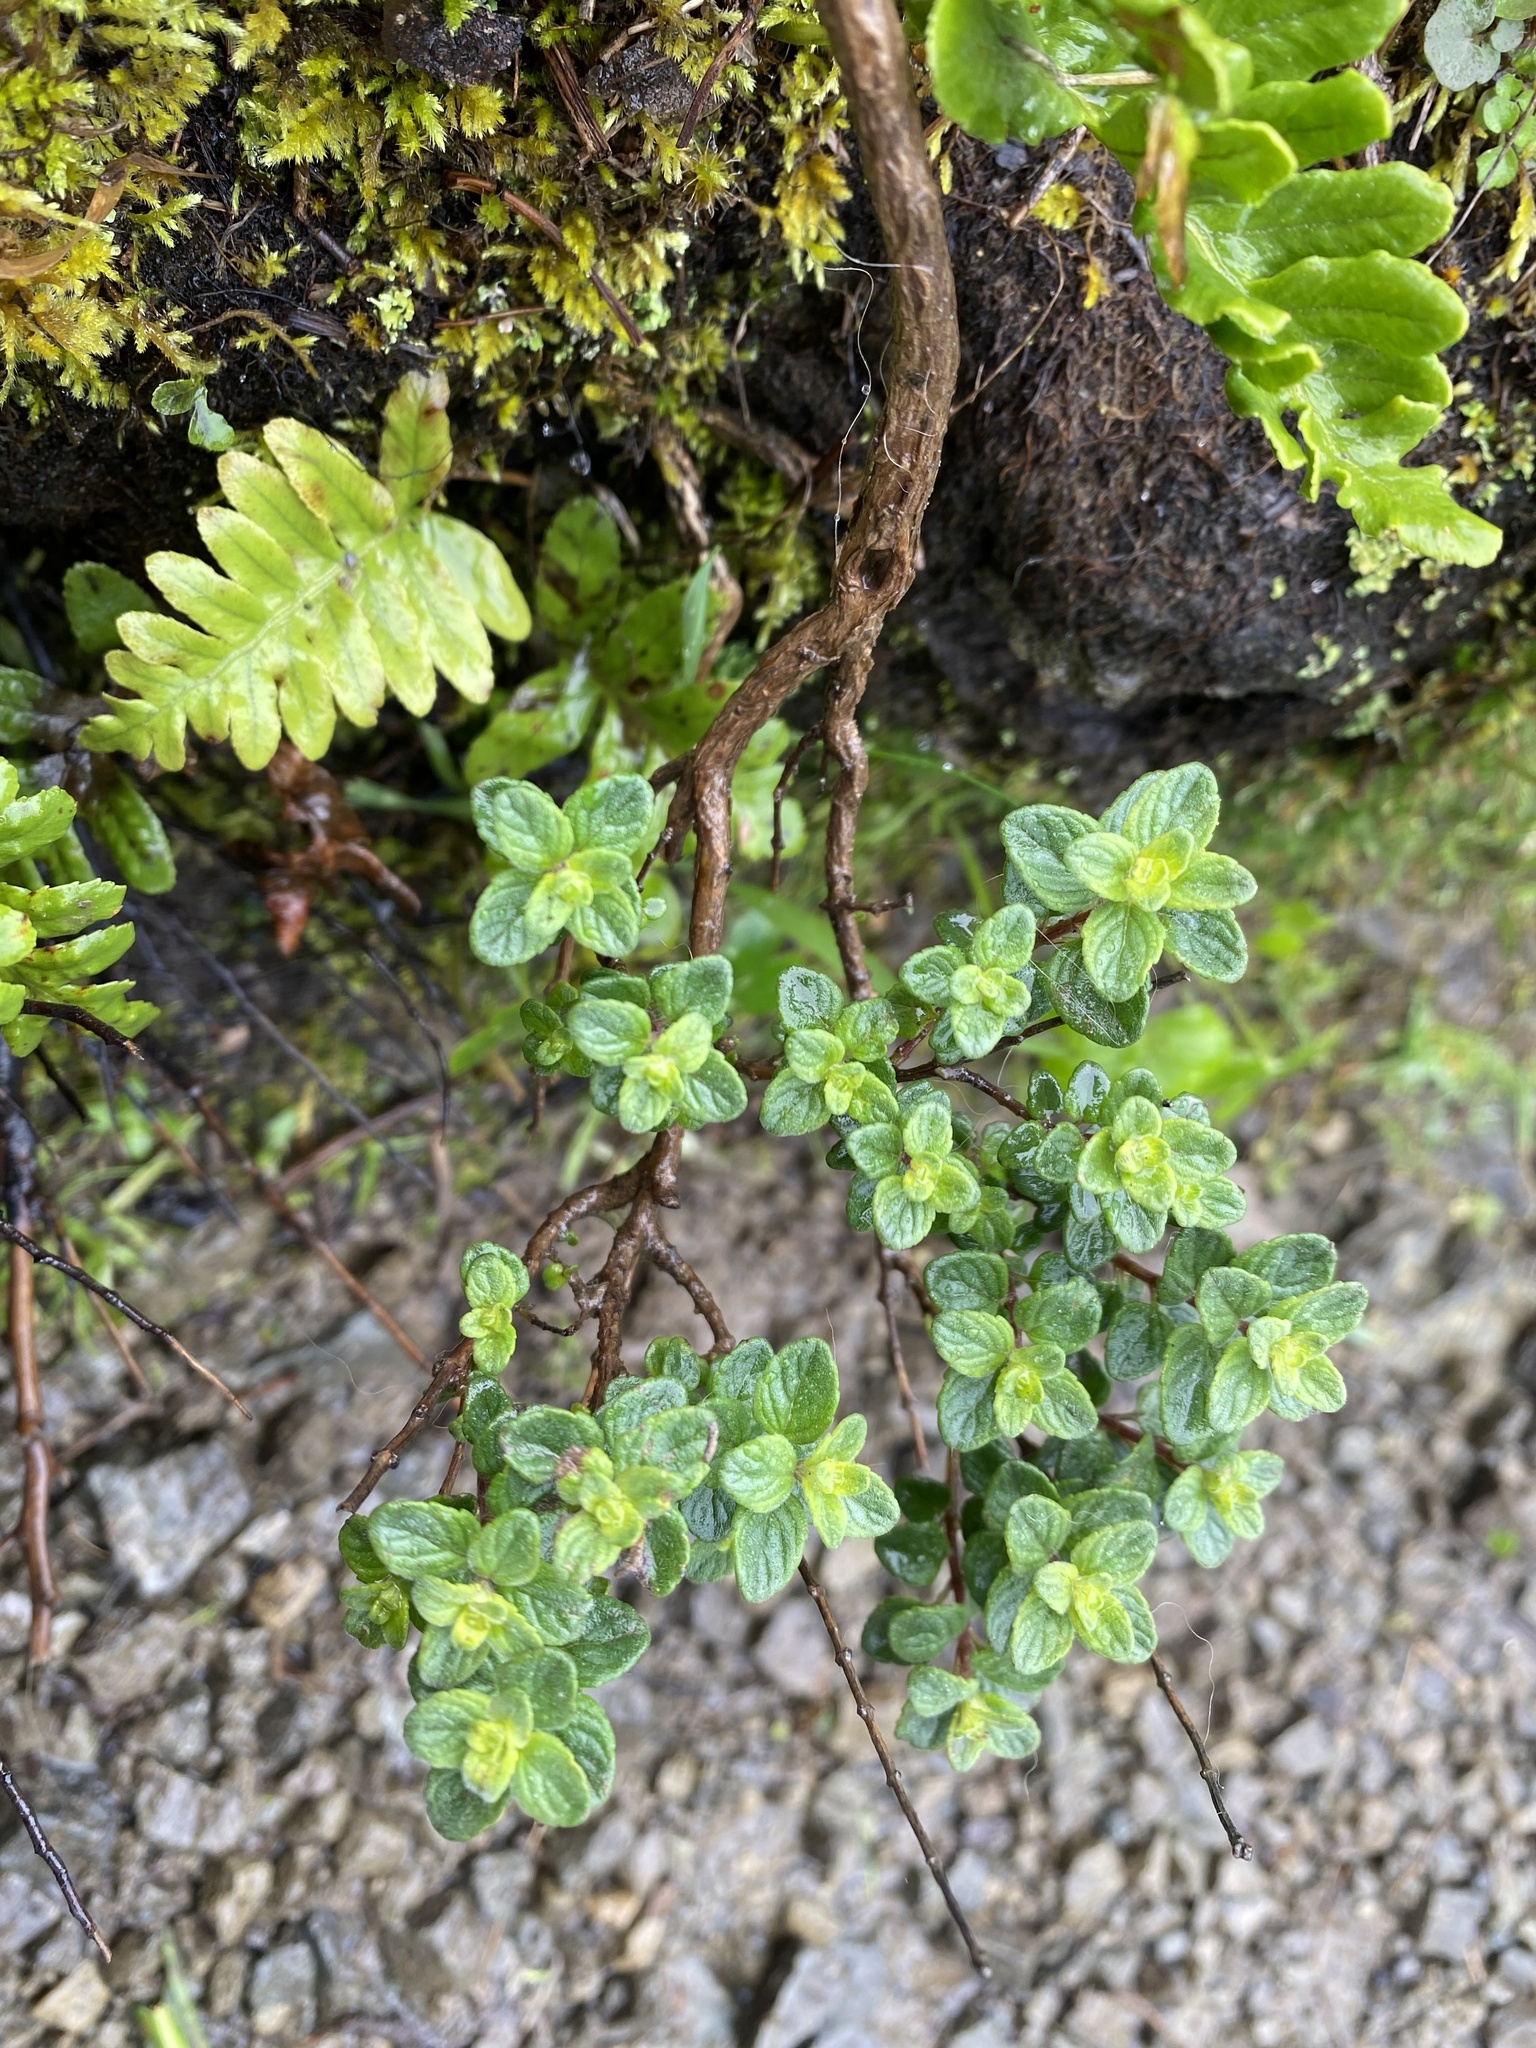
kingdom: Plantae
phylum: Tracheophyta
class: Magnoliopsida
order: Lamiales
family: Lamiaceae
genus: Monardella
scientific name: Monardella odoratissima
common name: Pacific monardella
